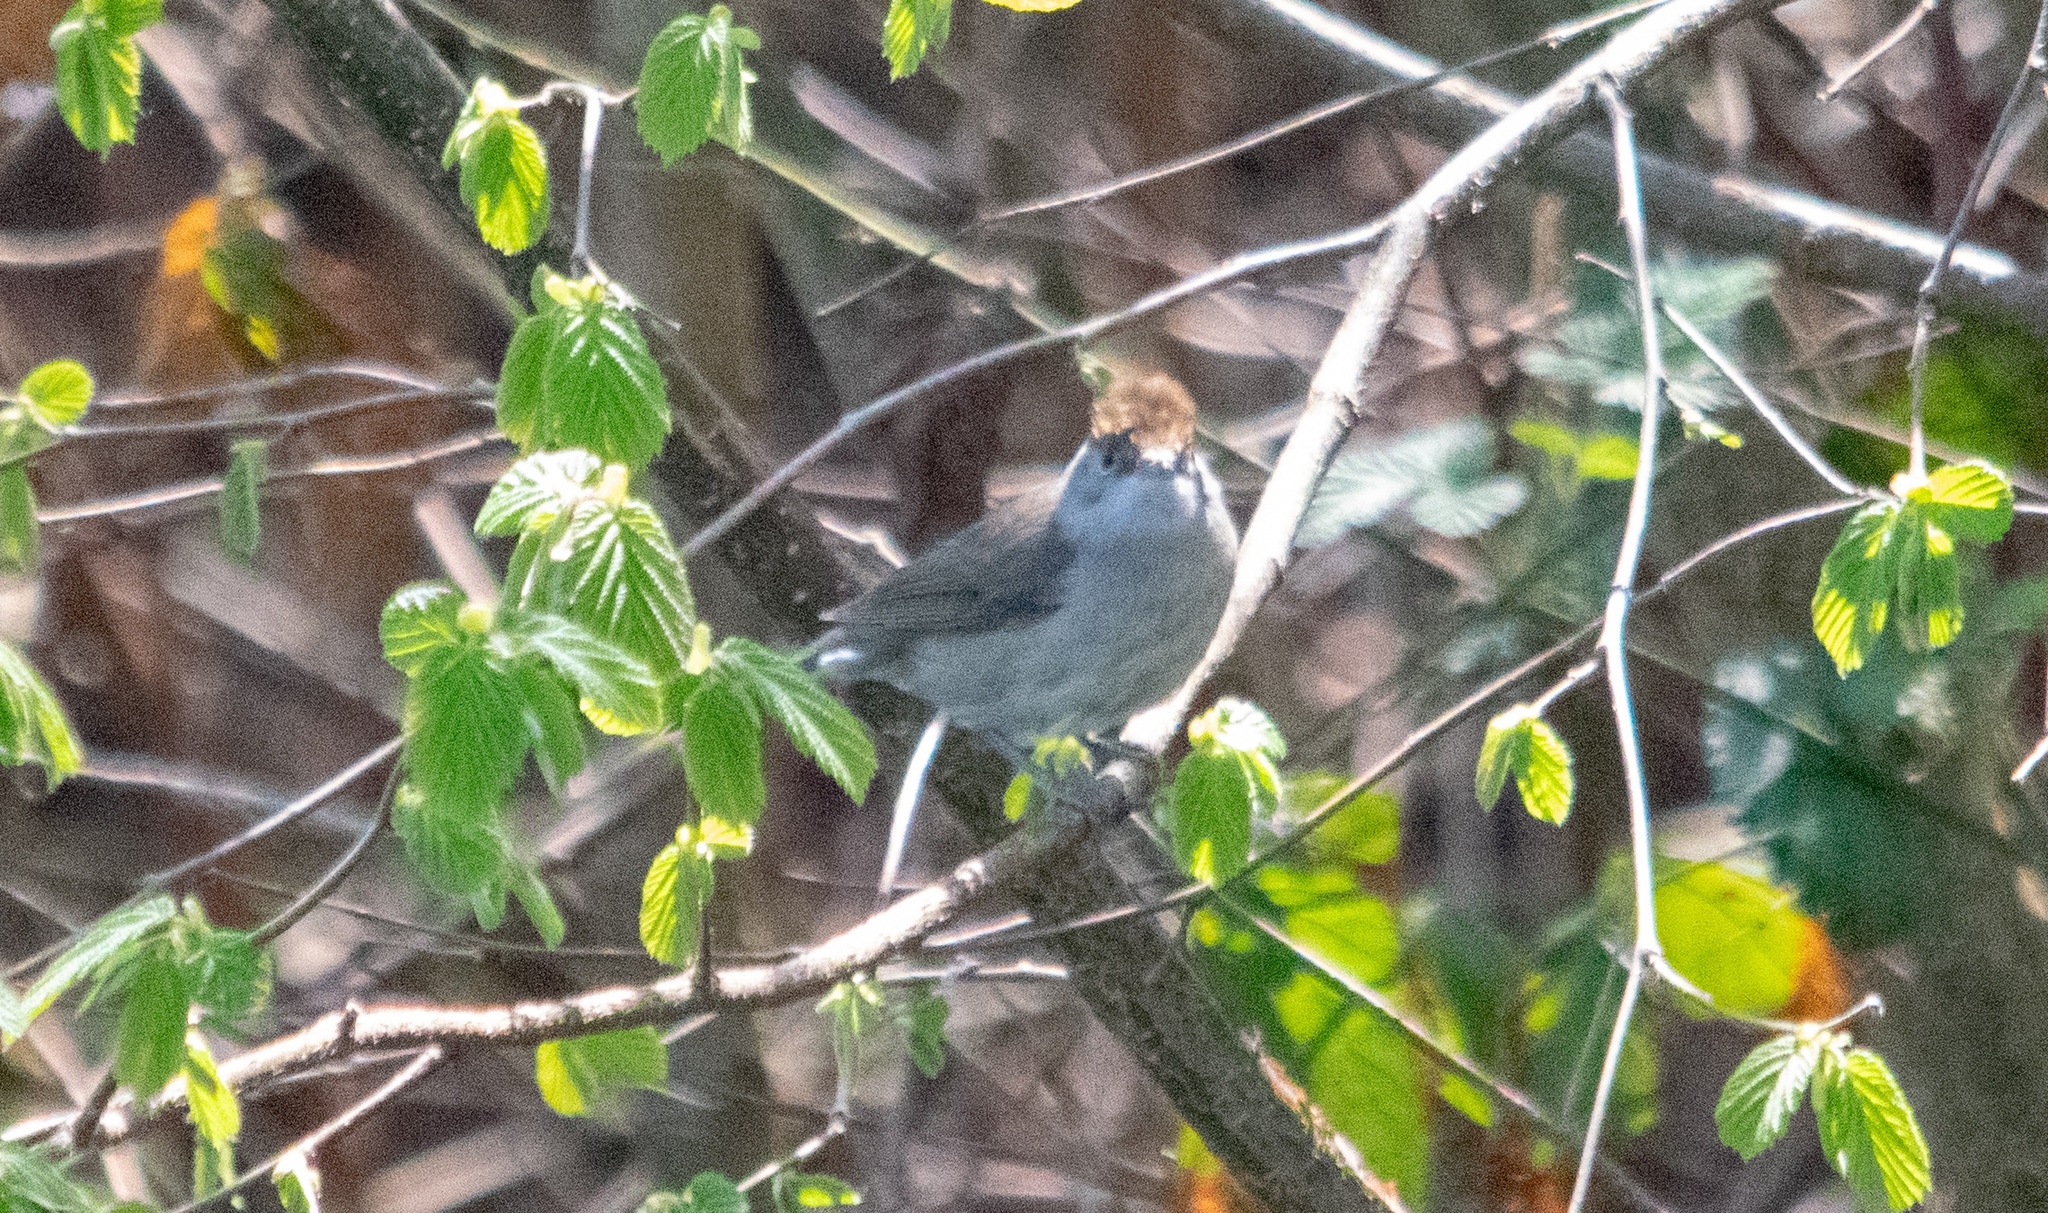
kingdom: Animalia
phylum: Chordata
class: Aves
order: Passeriformes
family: Sylviidae
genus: Sylvia
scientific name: Sylvia atricapilla
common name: Eurasian blackcap
